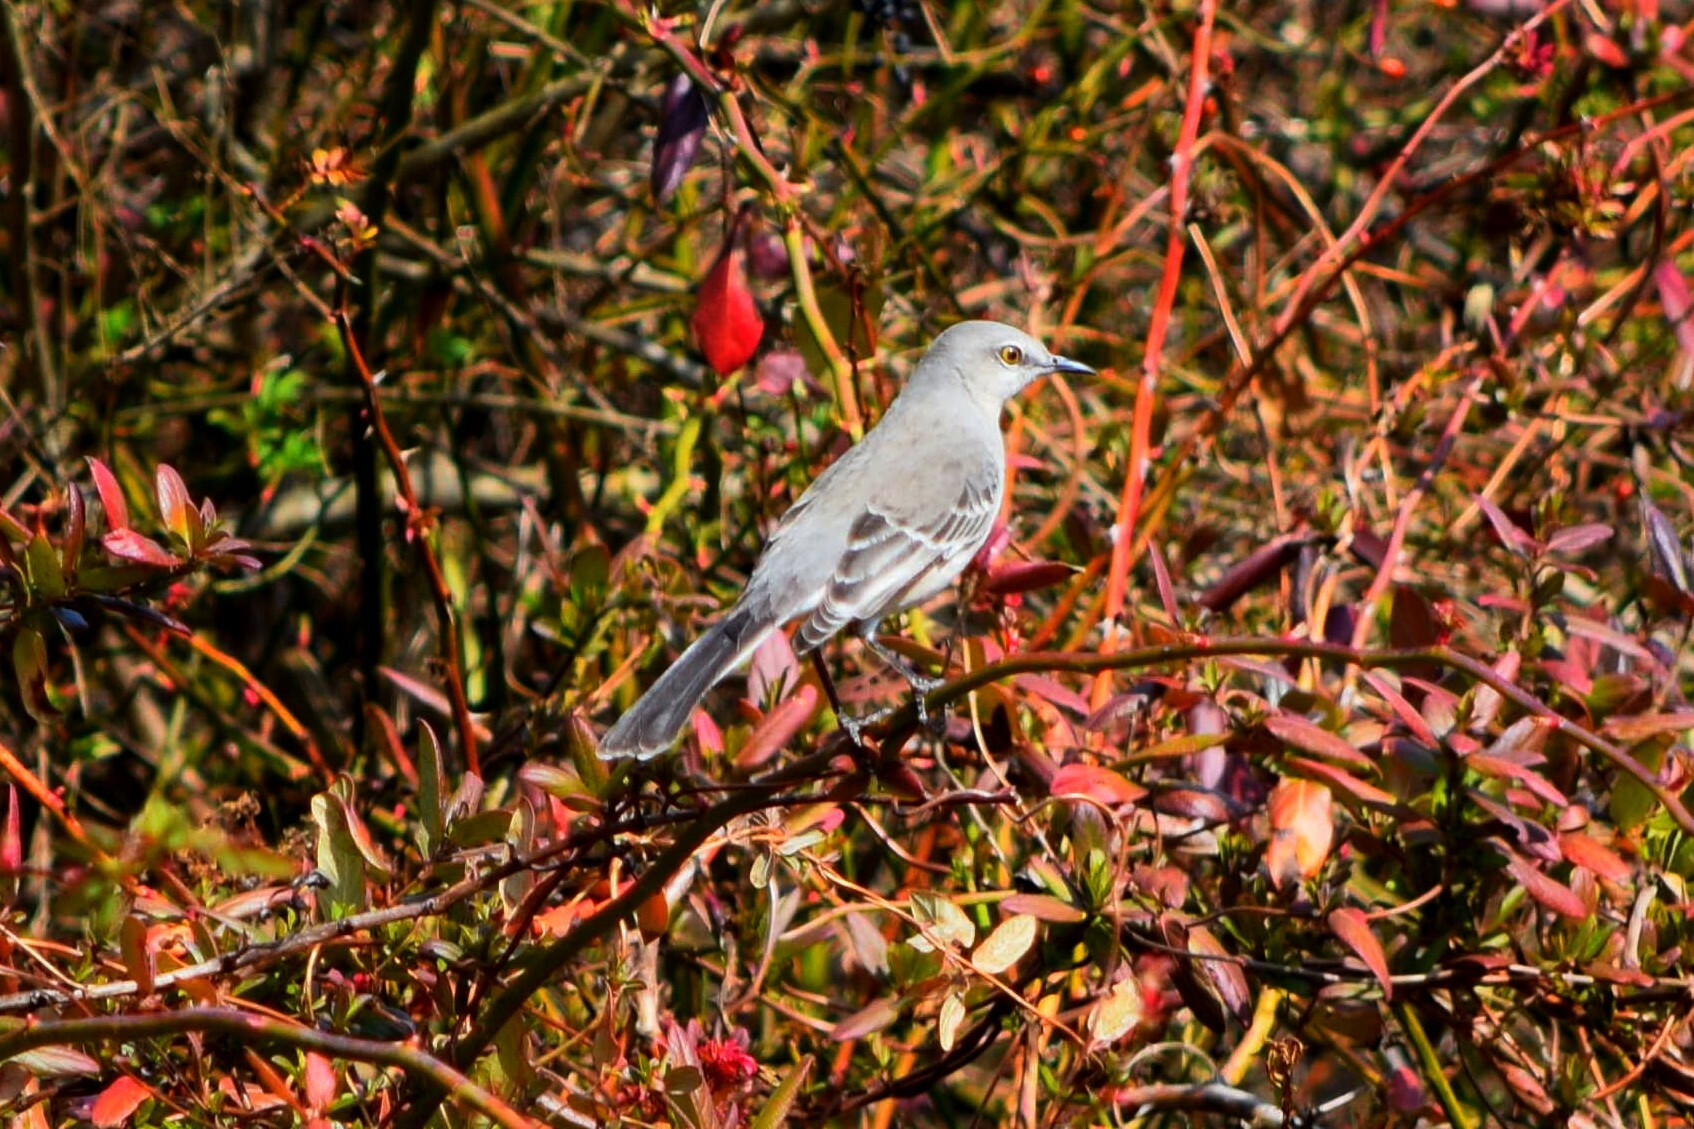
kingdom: Animalia
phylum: Chordata
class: Aves
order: Passeriformes
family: Mimidae
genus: Mimus
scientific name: Mimus polyglottos
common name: Northern mockingbird
